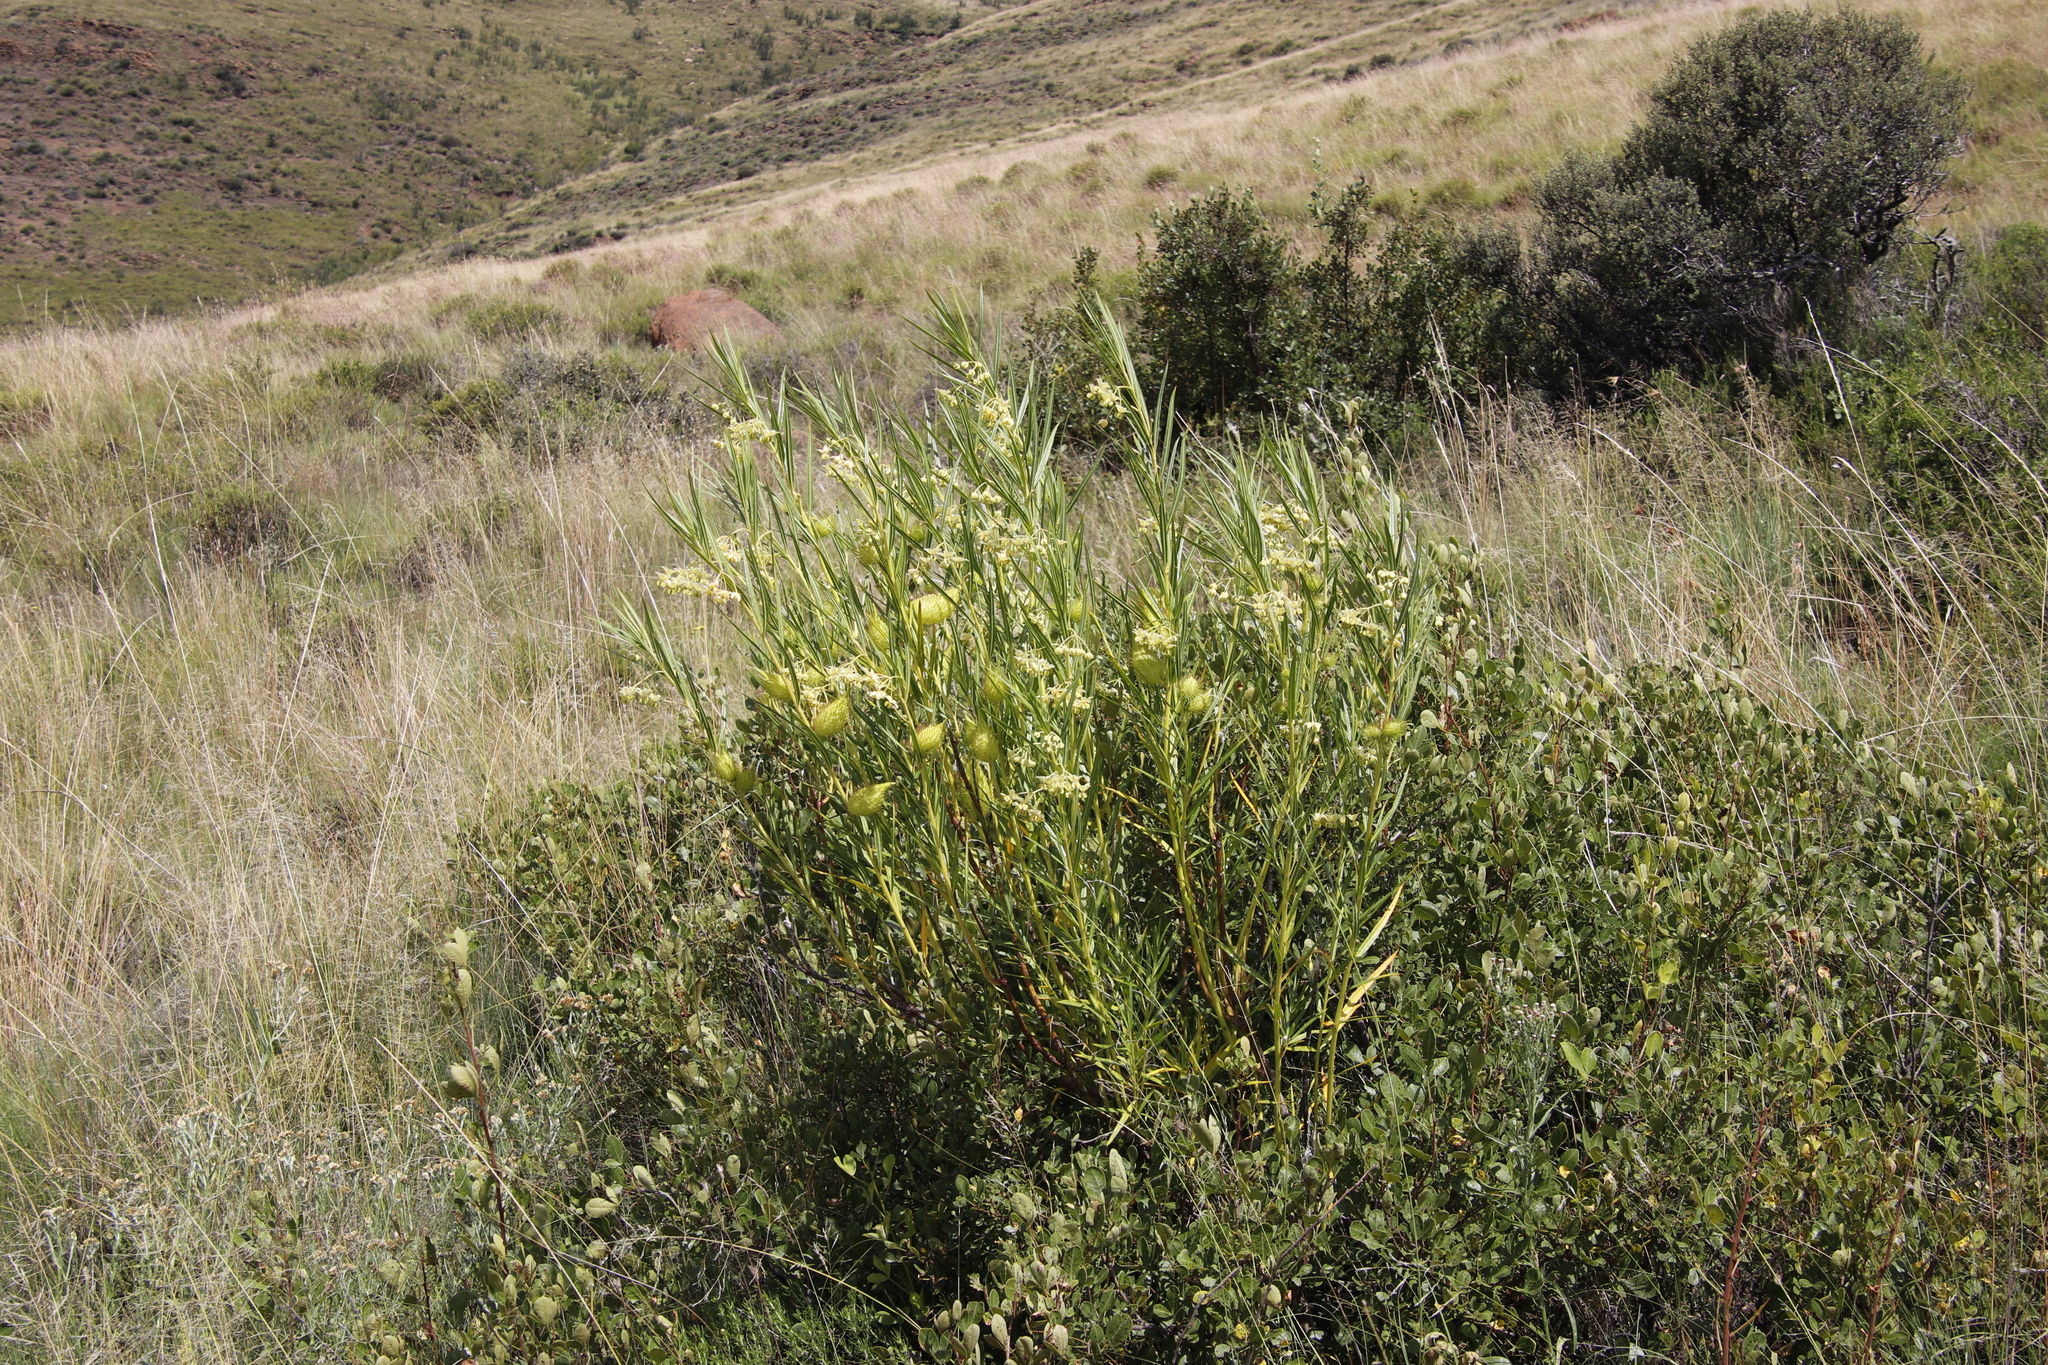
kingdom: Plantae
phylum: Tracheophyta
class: Magnoliopsida
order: Gentianales
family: Apocynaceae
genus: Gomphocarpus
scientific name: Gomphocarpus fruticosus
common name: Milkweed
